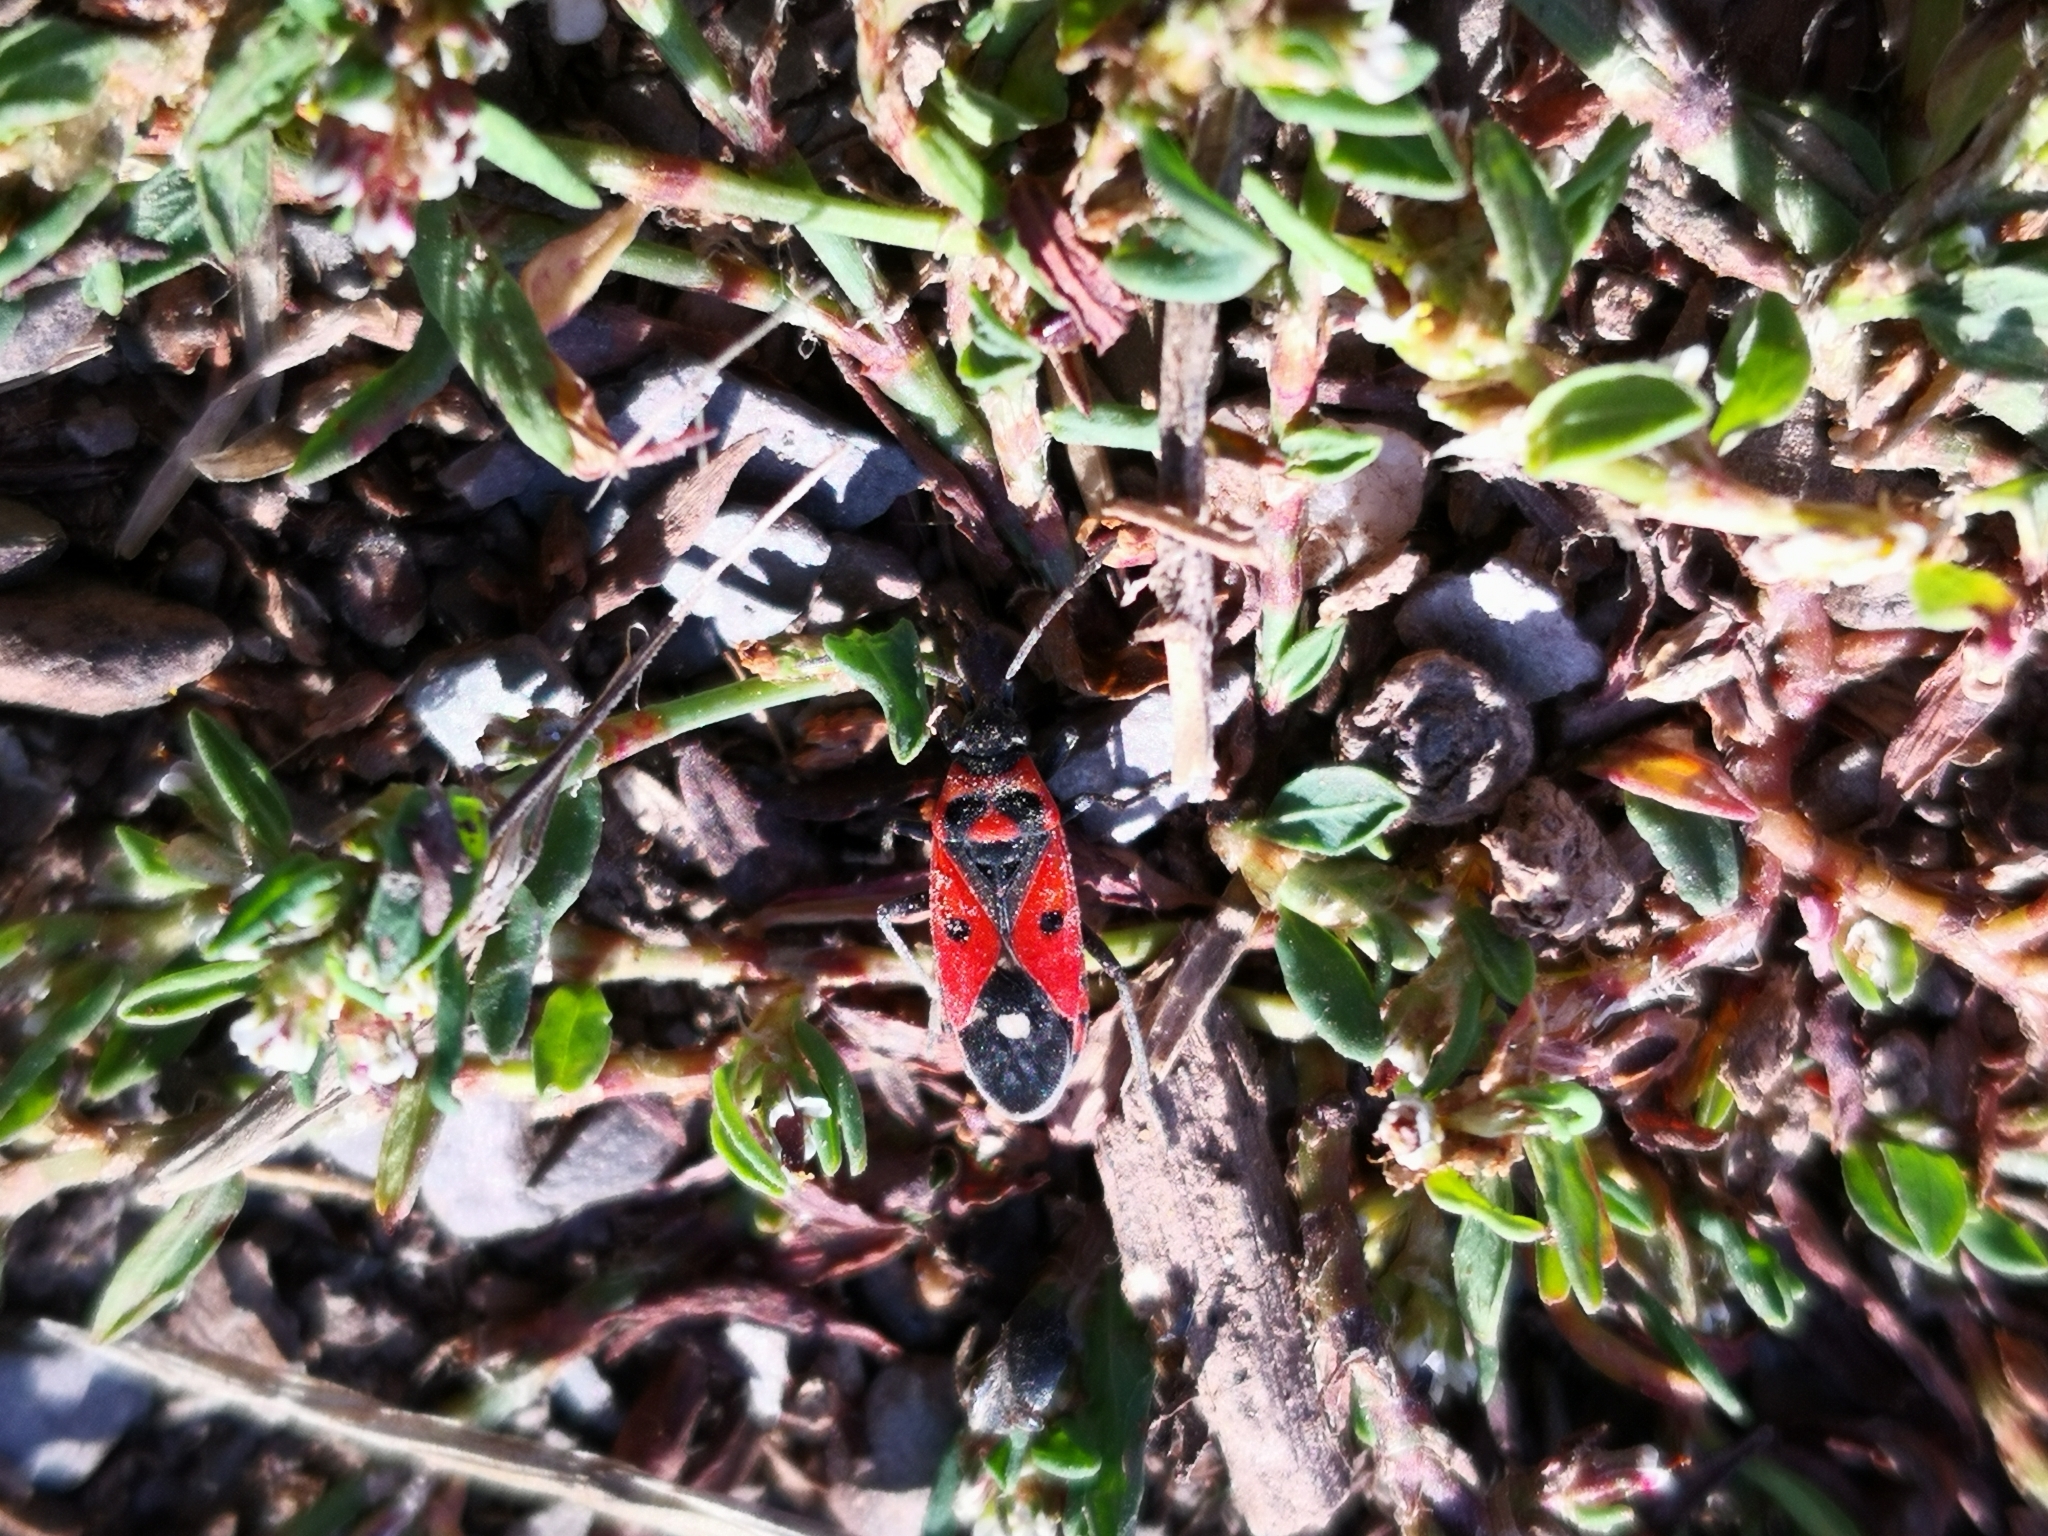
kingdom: Animalia
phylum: Arthropoda
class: Insecta
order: Hemiptera
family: Lygaeidae
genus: Melanocoryphus
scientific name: Melanocoryphus albomaculatus
